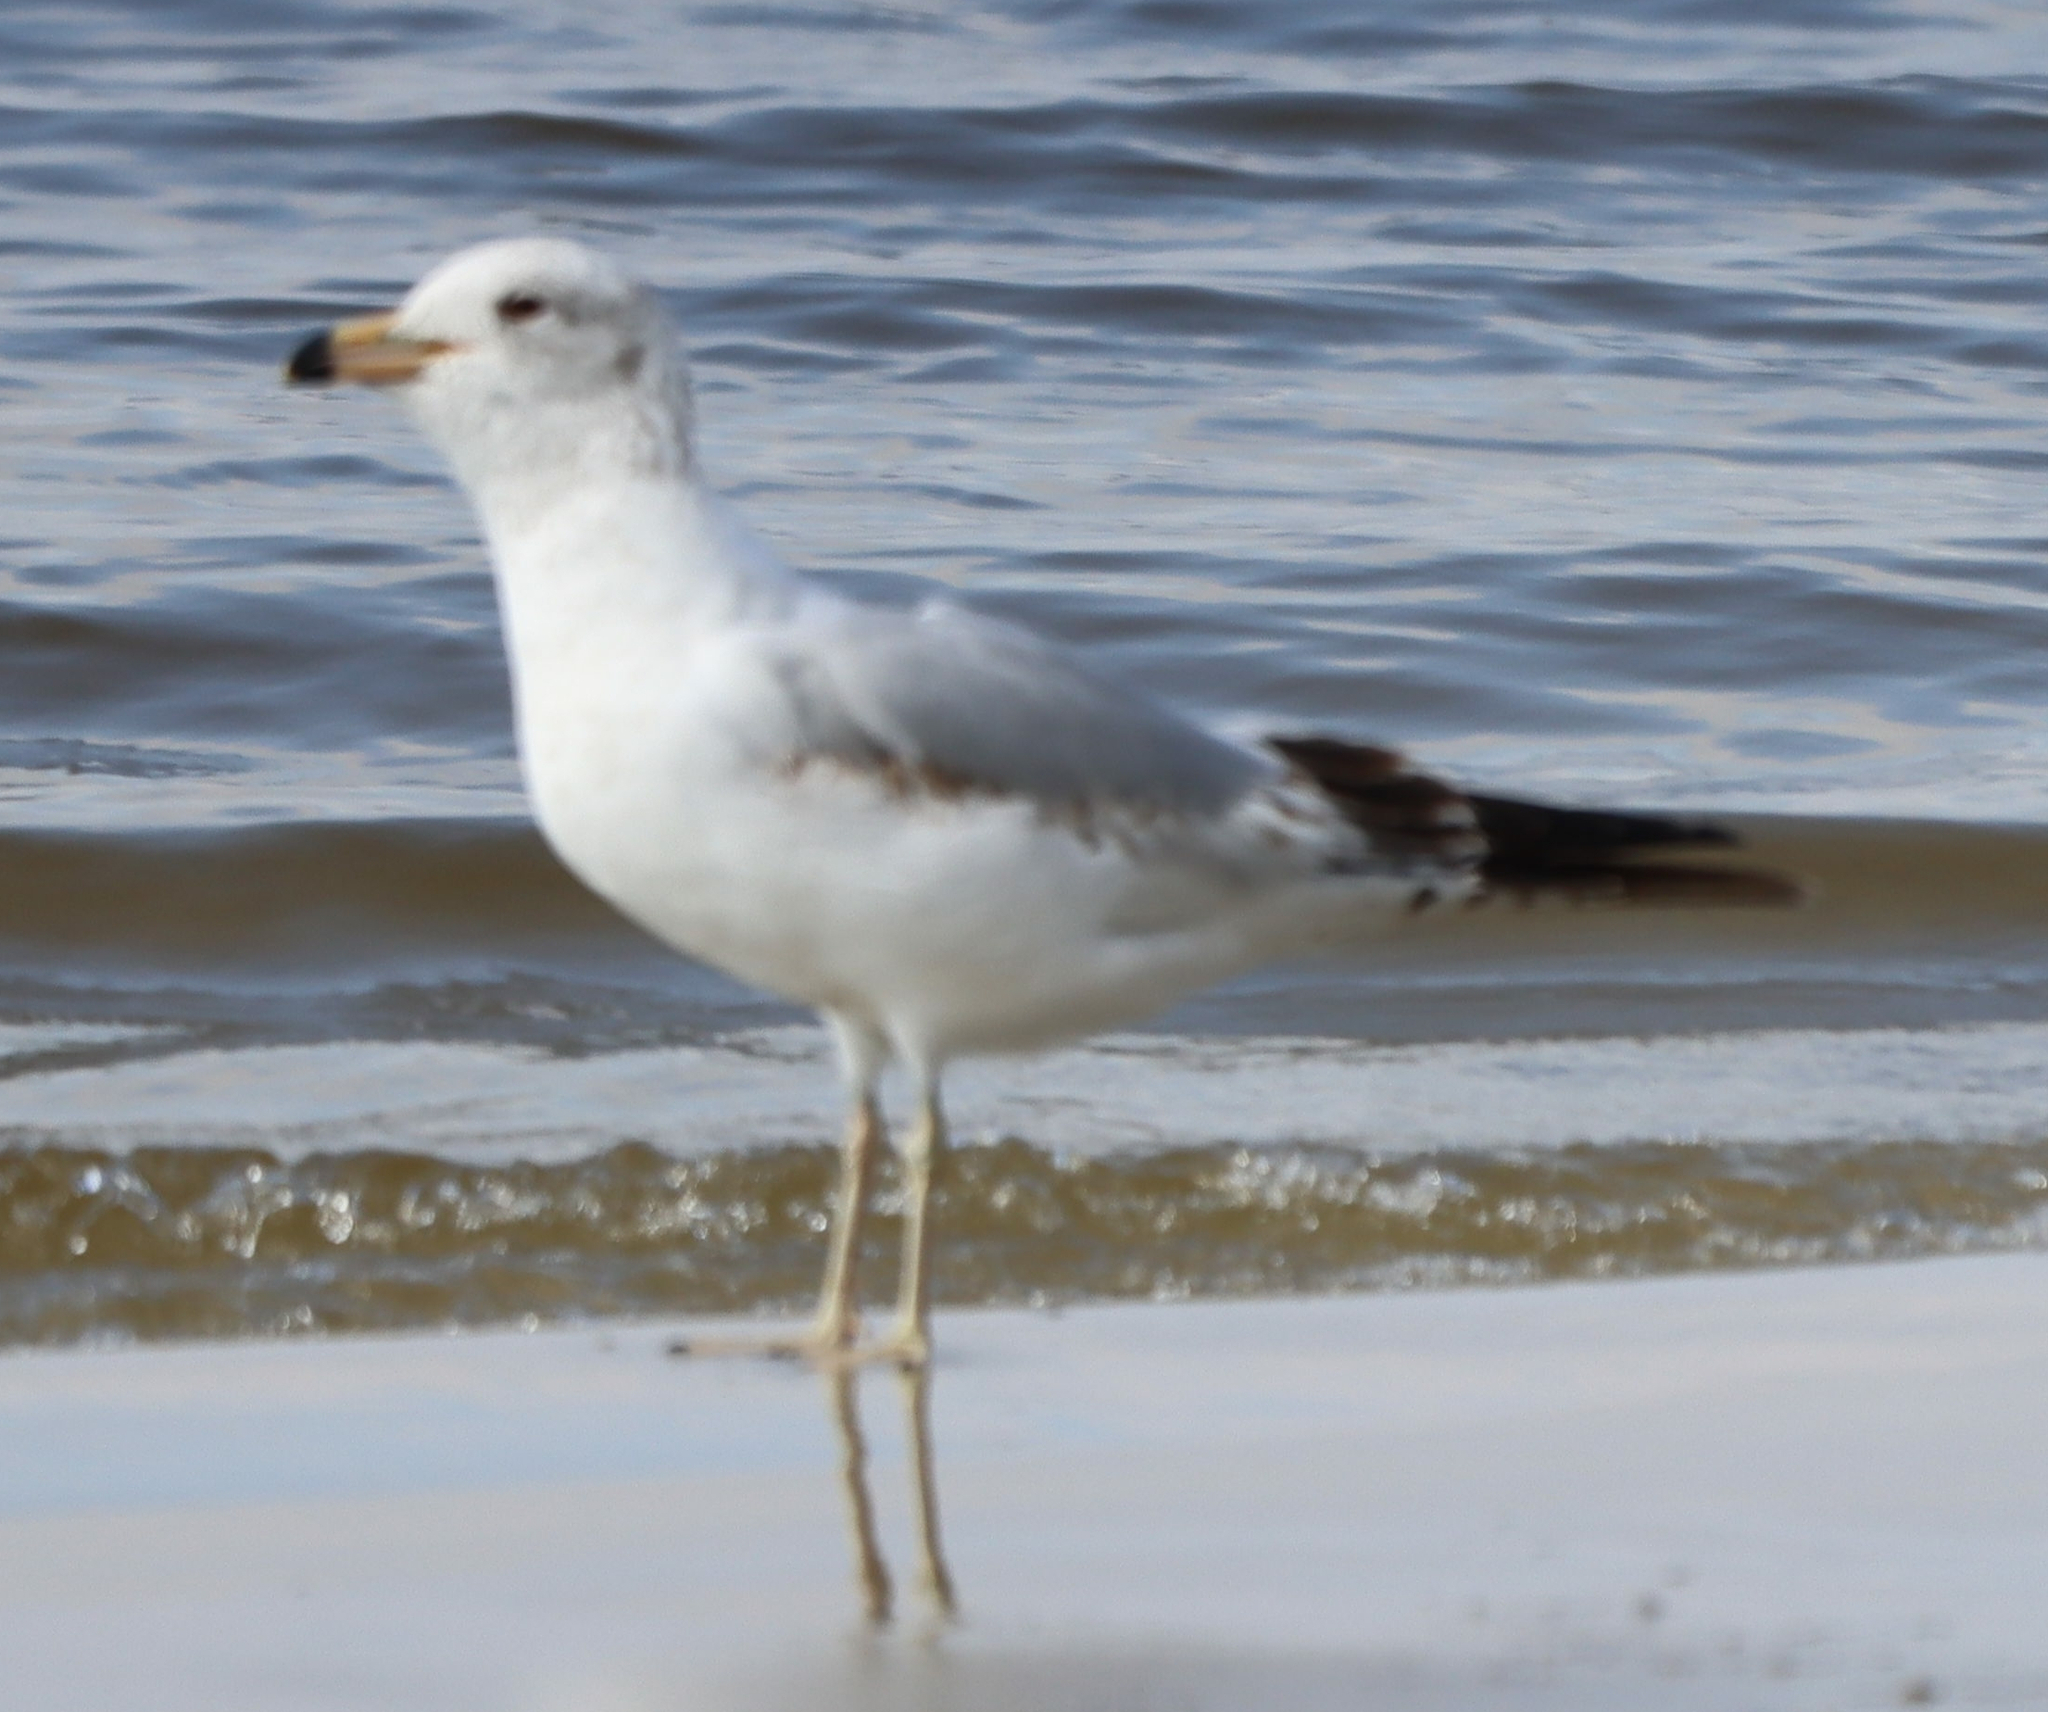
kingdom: Animalia
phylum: Chordata
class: Aves
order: Charadriiformes
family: Laridae
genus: Larus
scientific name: Larus delawarensis
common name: Ring-billed gull
